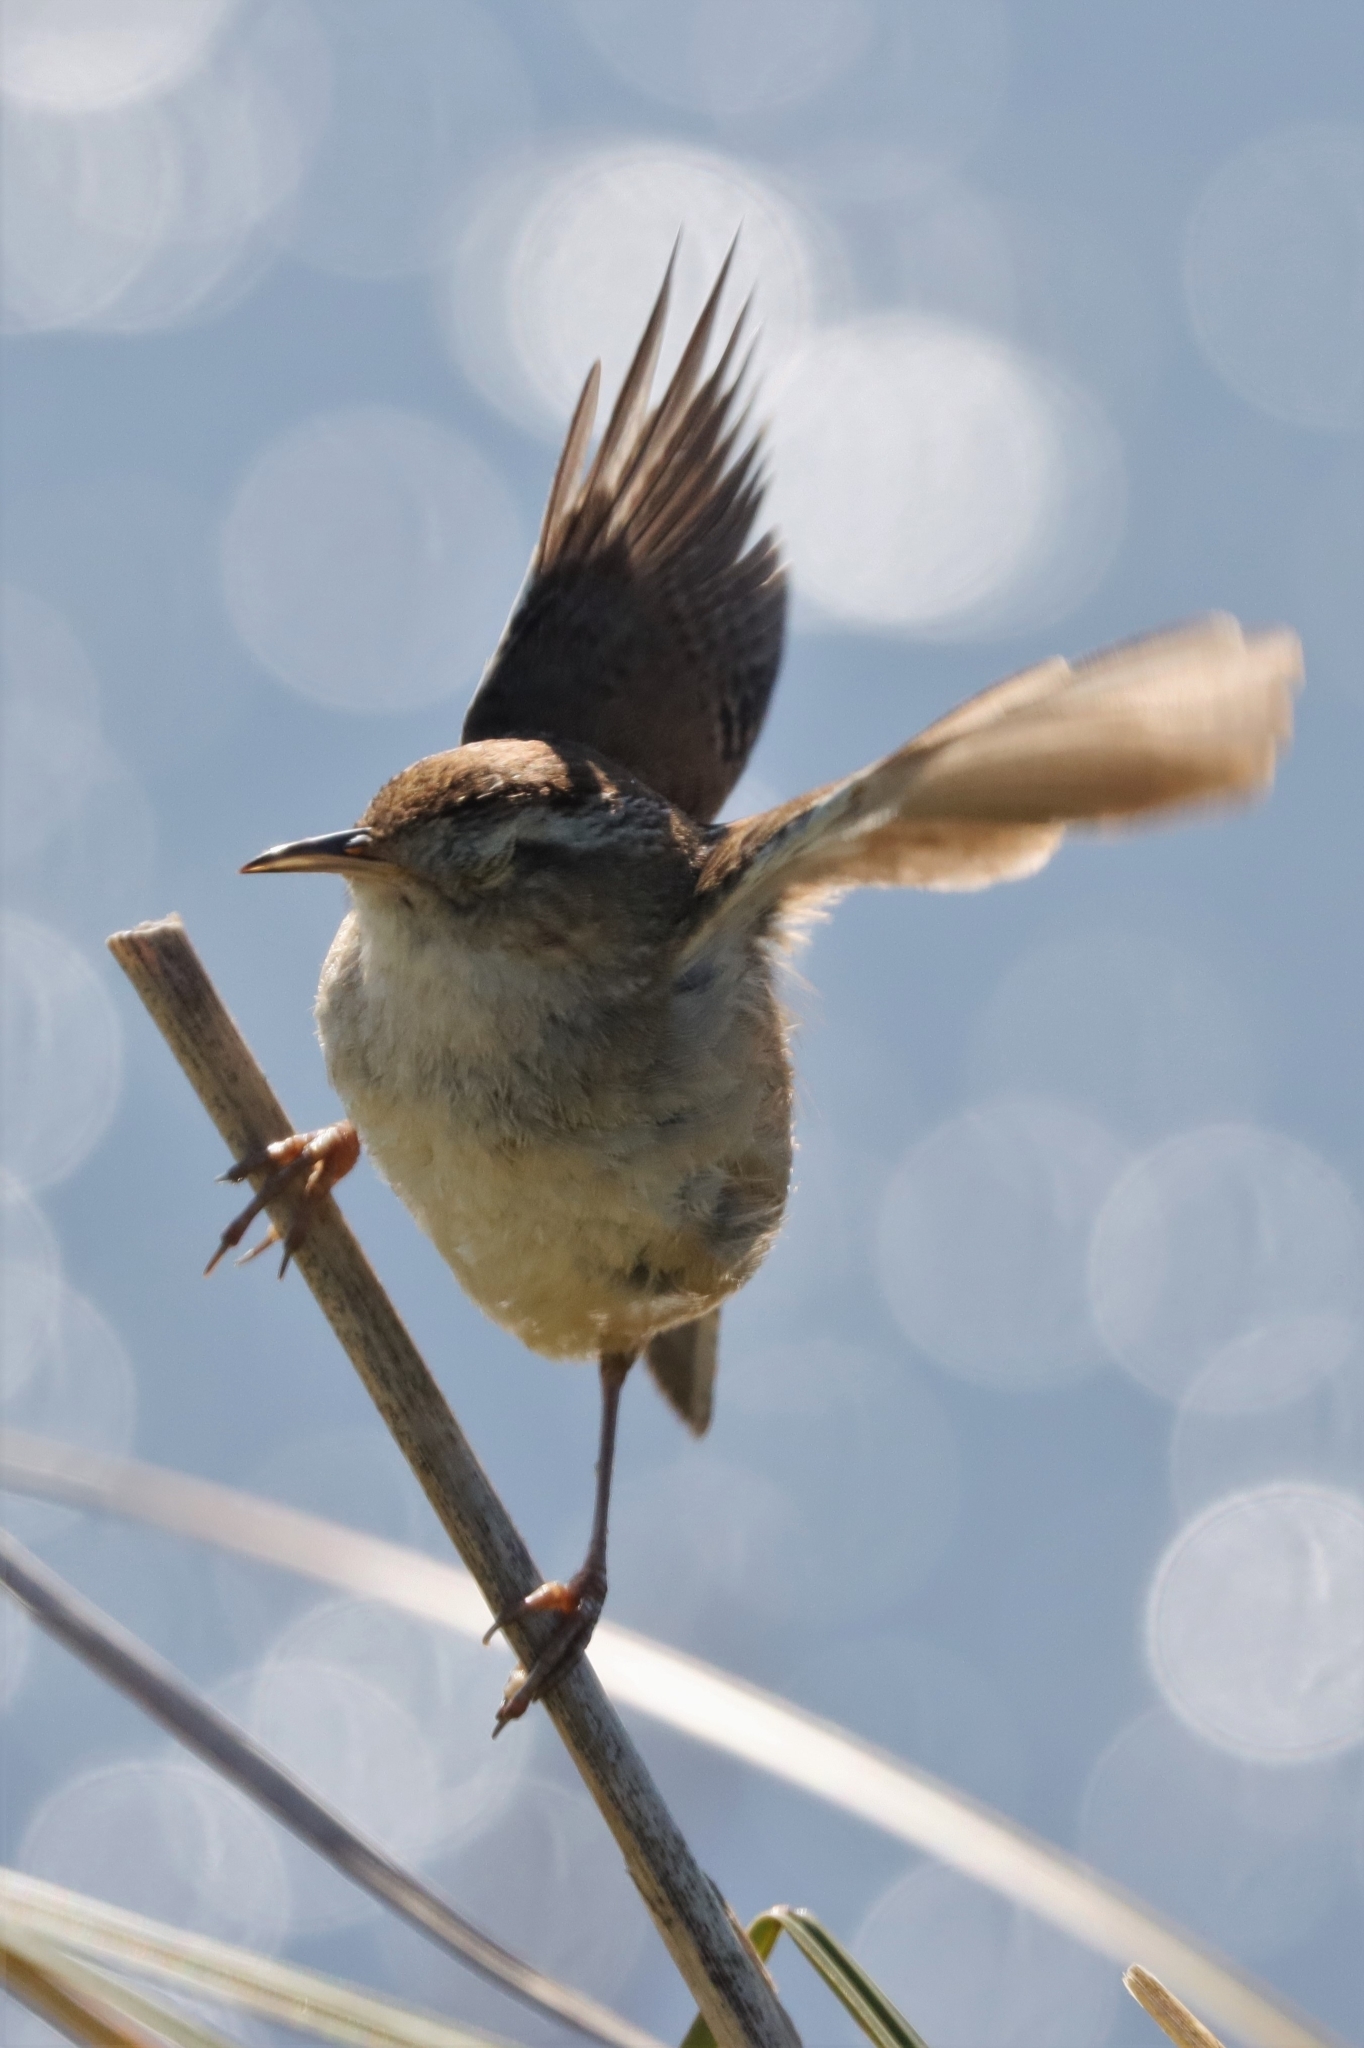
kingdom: Animalia
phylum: Chordata
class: Aves
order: Passeriformes
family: Troglodytidae
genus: Cistothorus
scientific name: Cistothorus palustris
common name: Marsh wren
